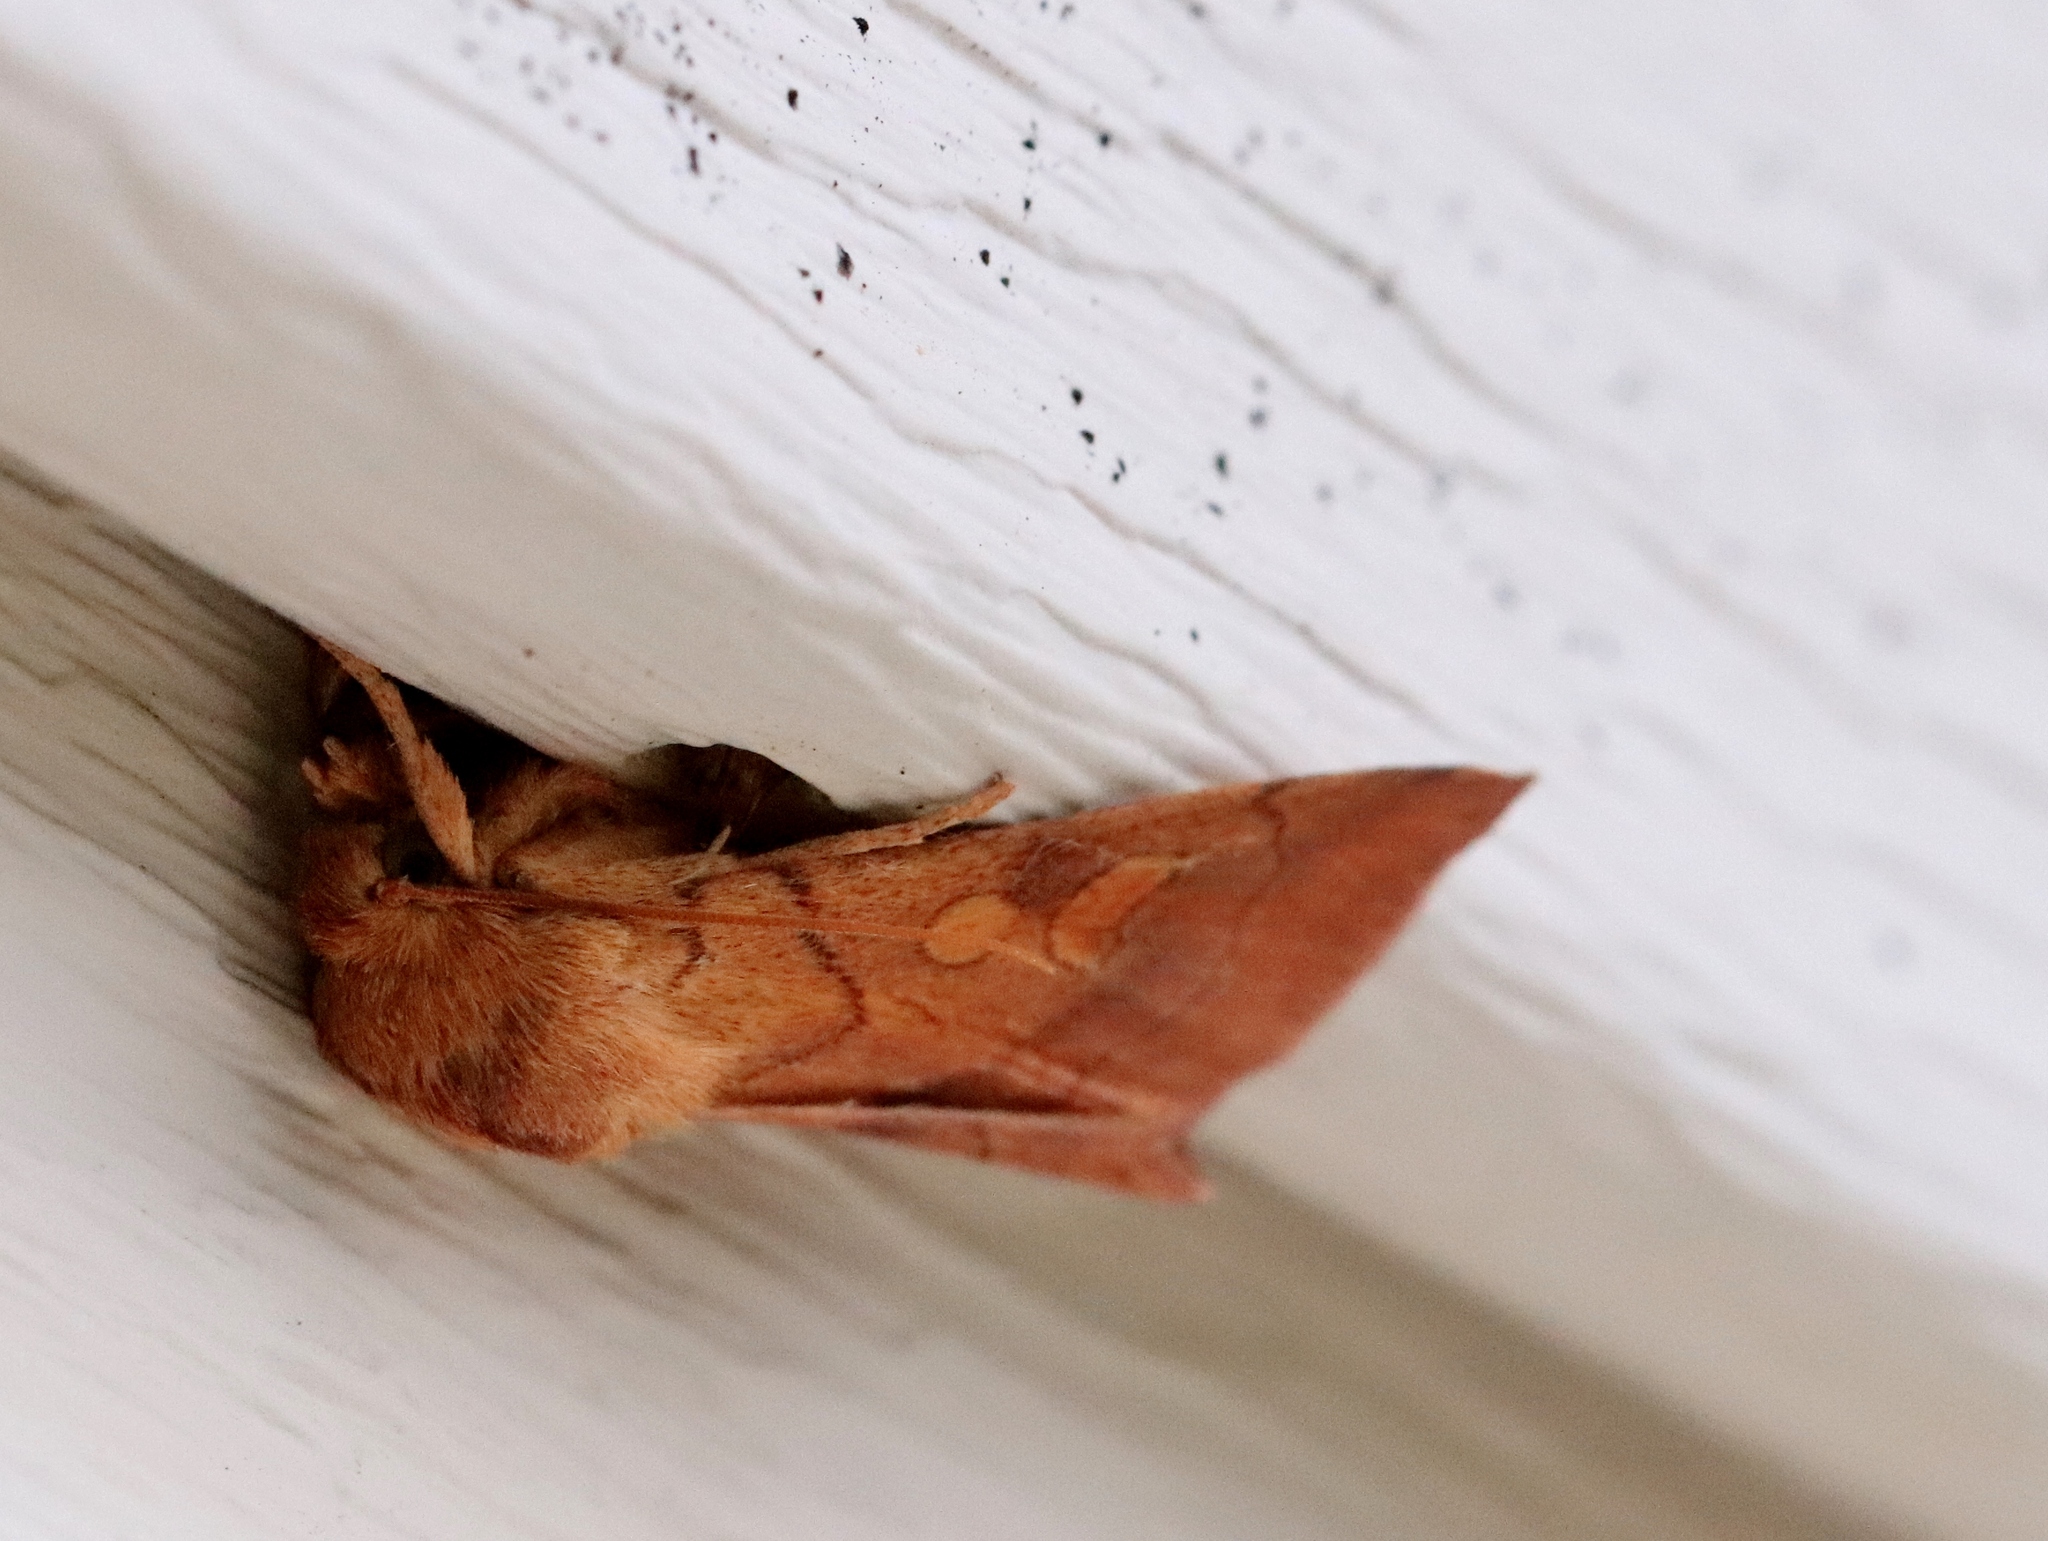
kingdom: Animalia
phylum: Arthropoda
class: Insecta
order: Lepidoptera
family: Noctuidae
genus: Enargia
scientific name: Enargia decolor
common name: Aspen twoleaf tier moth
